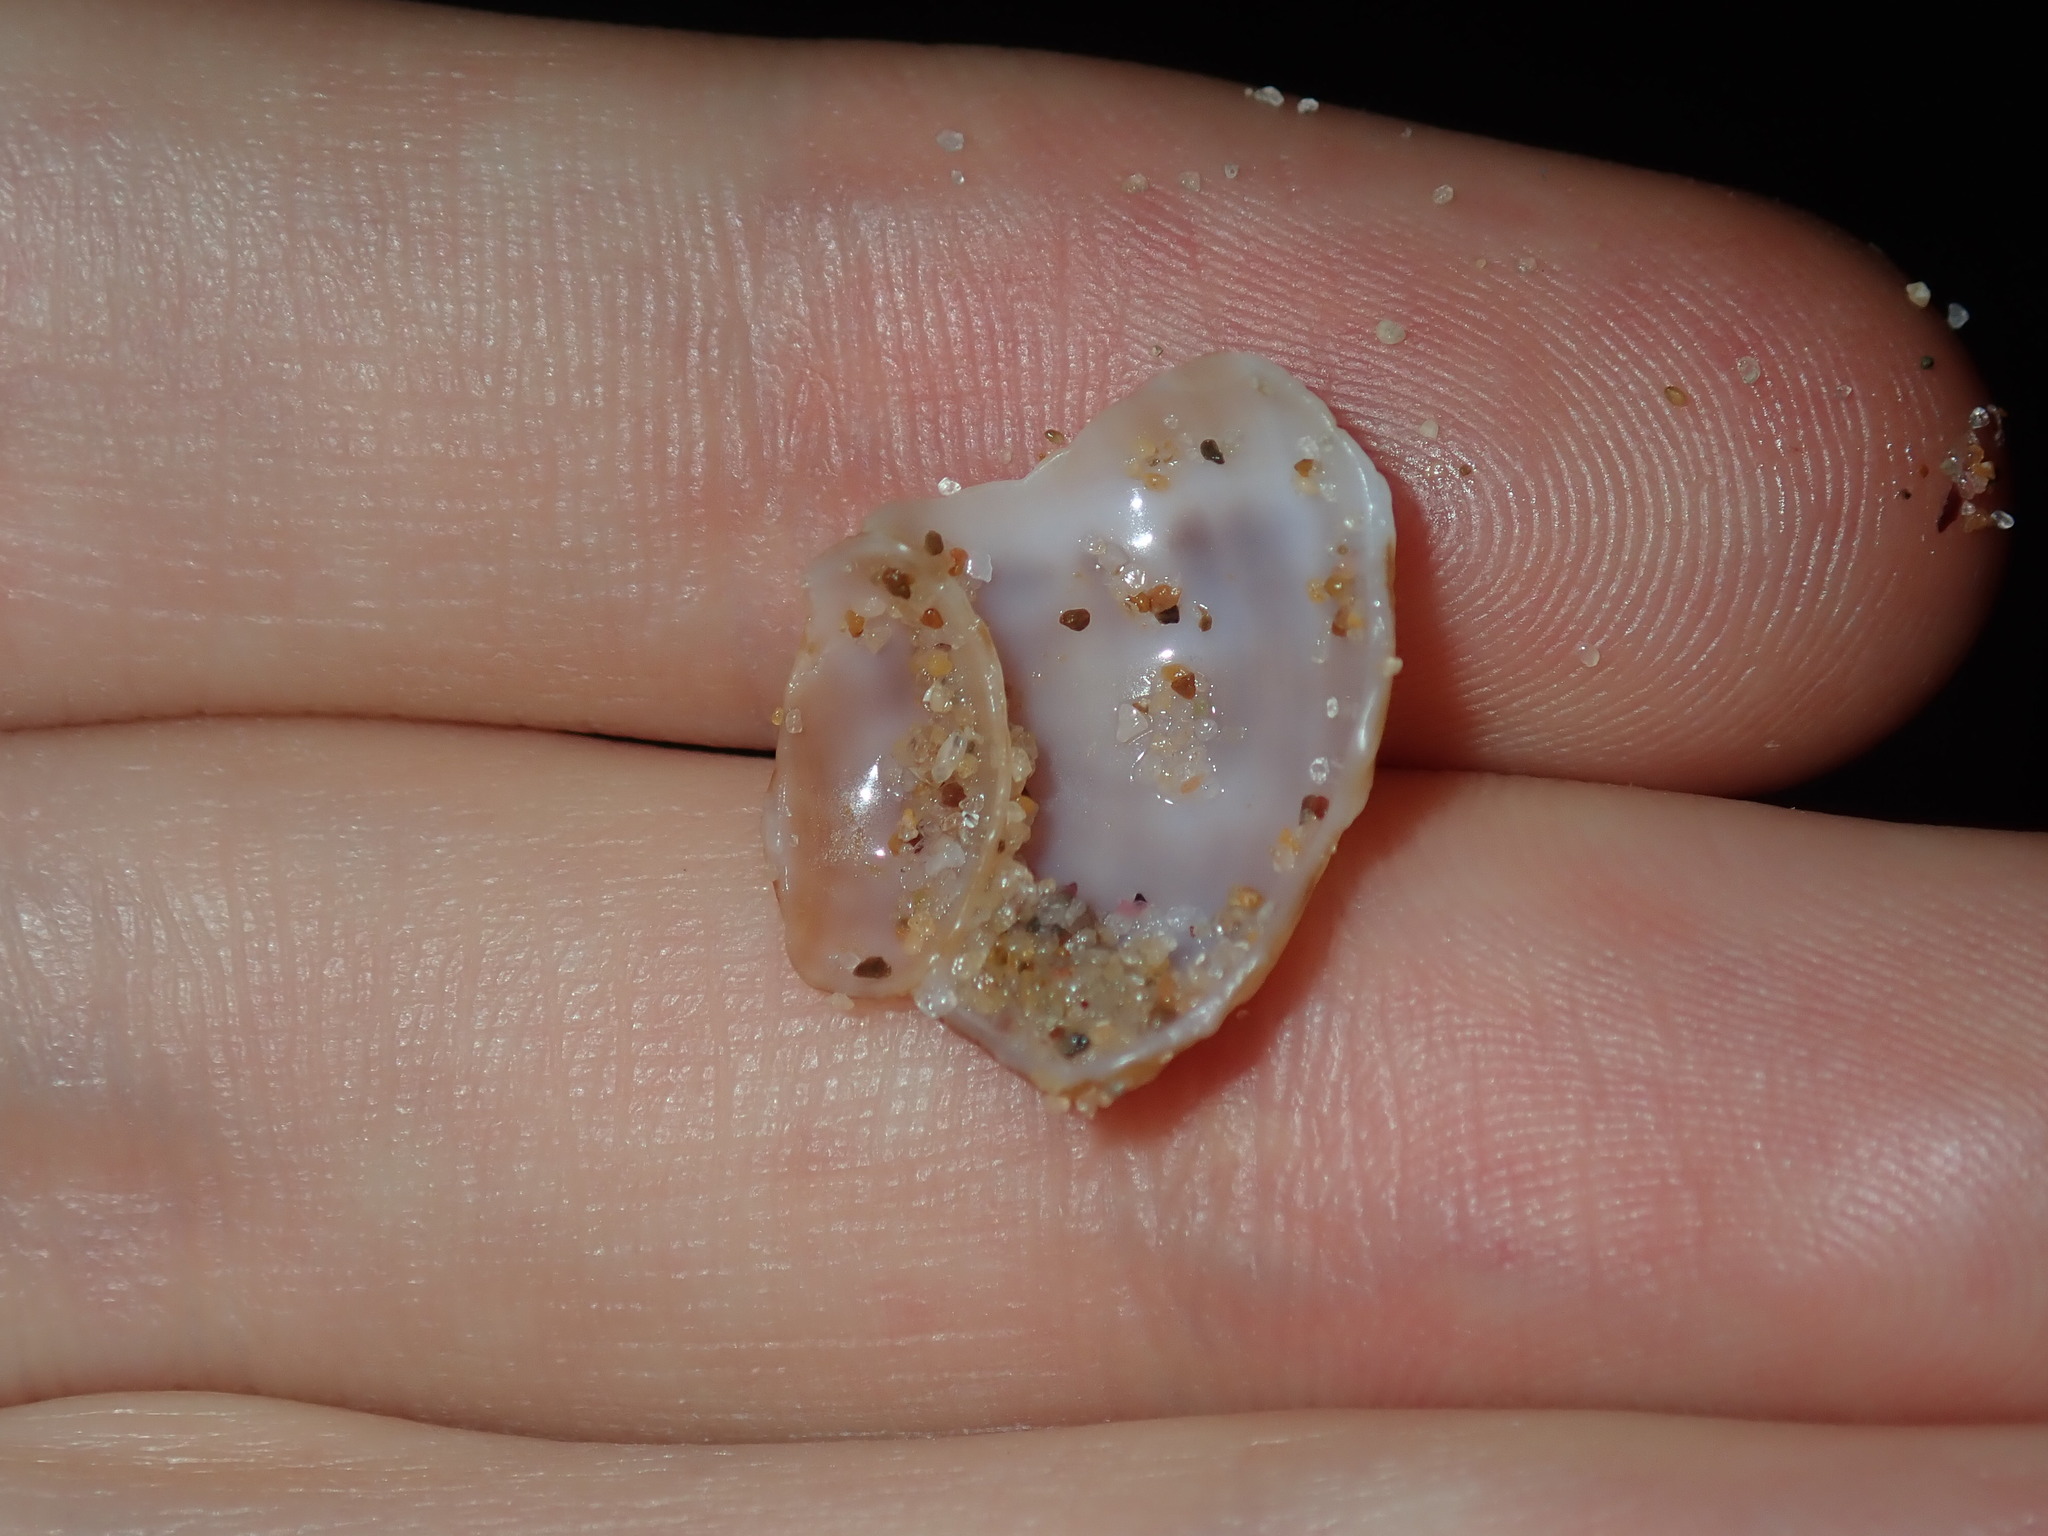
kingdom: Animalia
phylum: Mollusca
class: Gastropoda
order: Littorinimorpha
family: Ranellidae
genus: Ranella
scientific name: Ranella australasia
